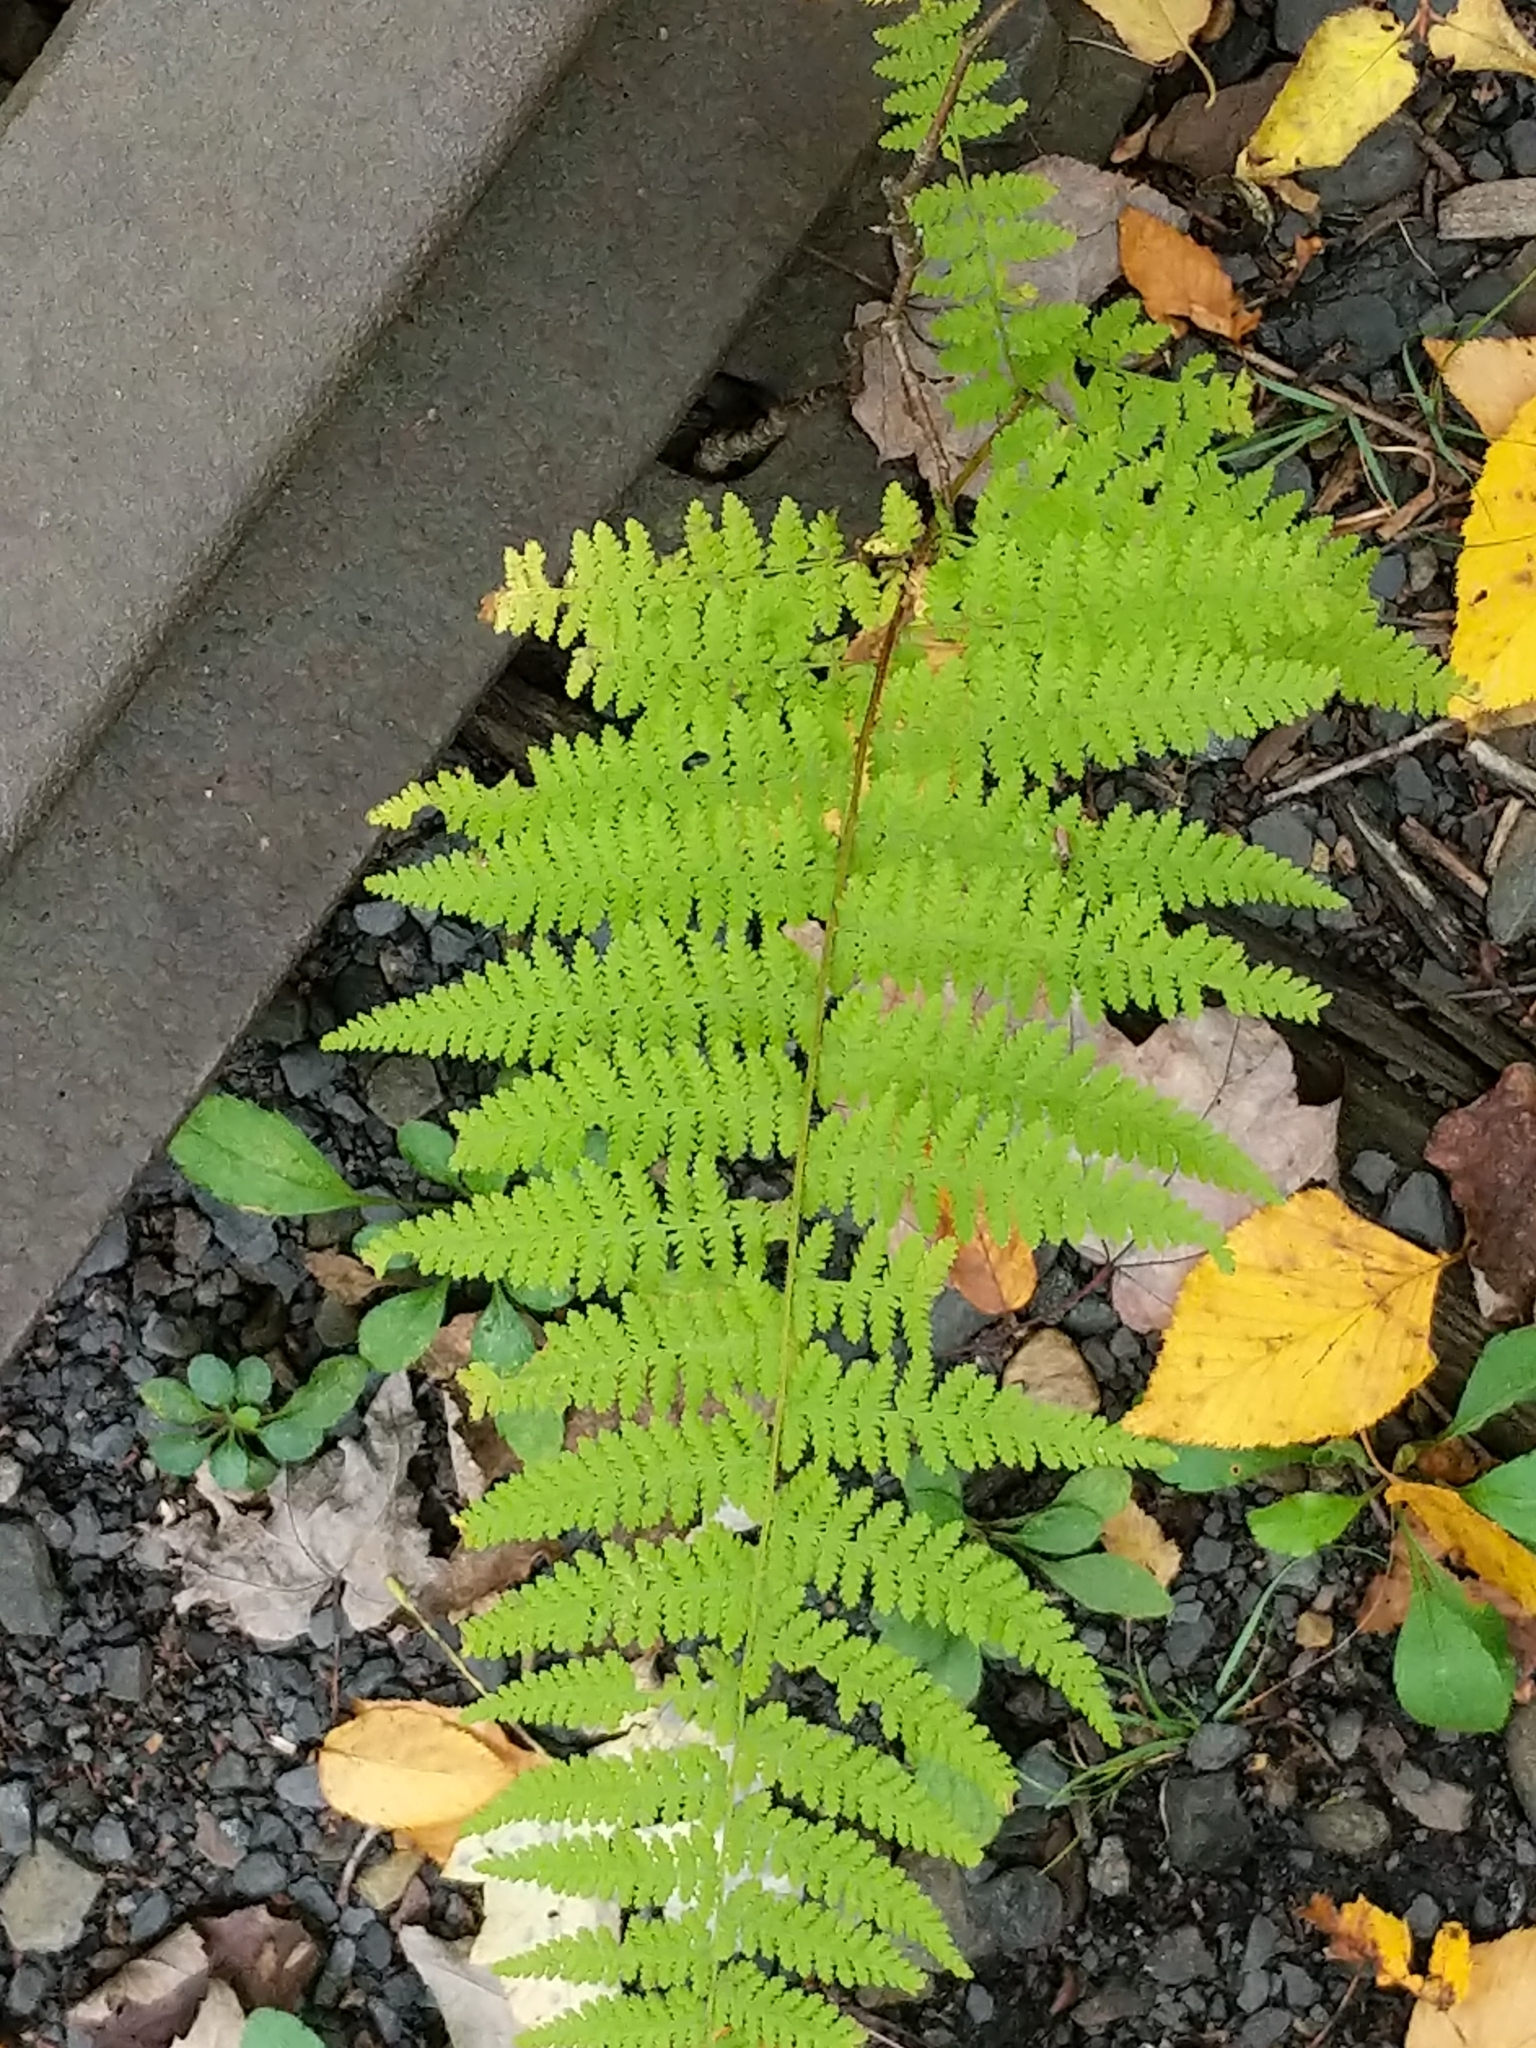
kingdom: Plantae
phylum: Tracheophyta
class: Polypodiopsida
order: Polypodiales
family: Dennstaedtiaceae
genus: Sitobolium
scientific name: Sitobolium punctilobum
